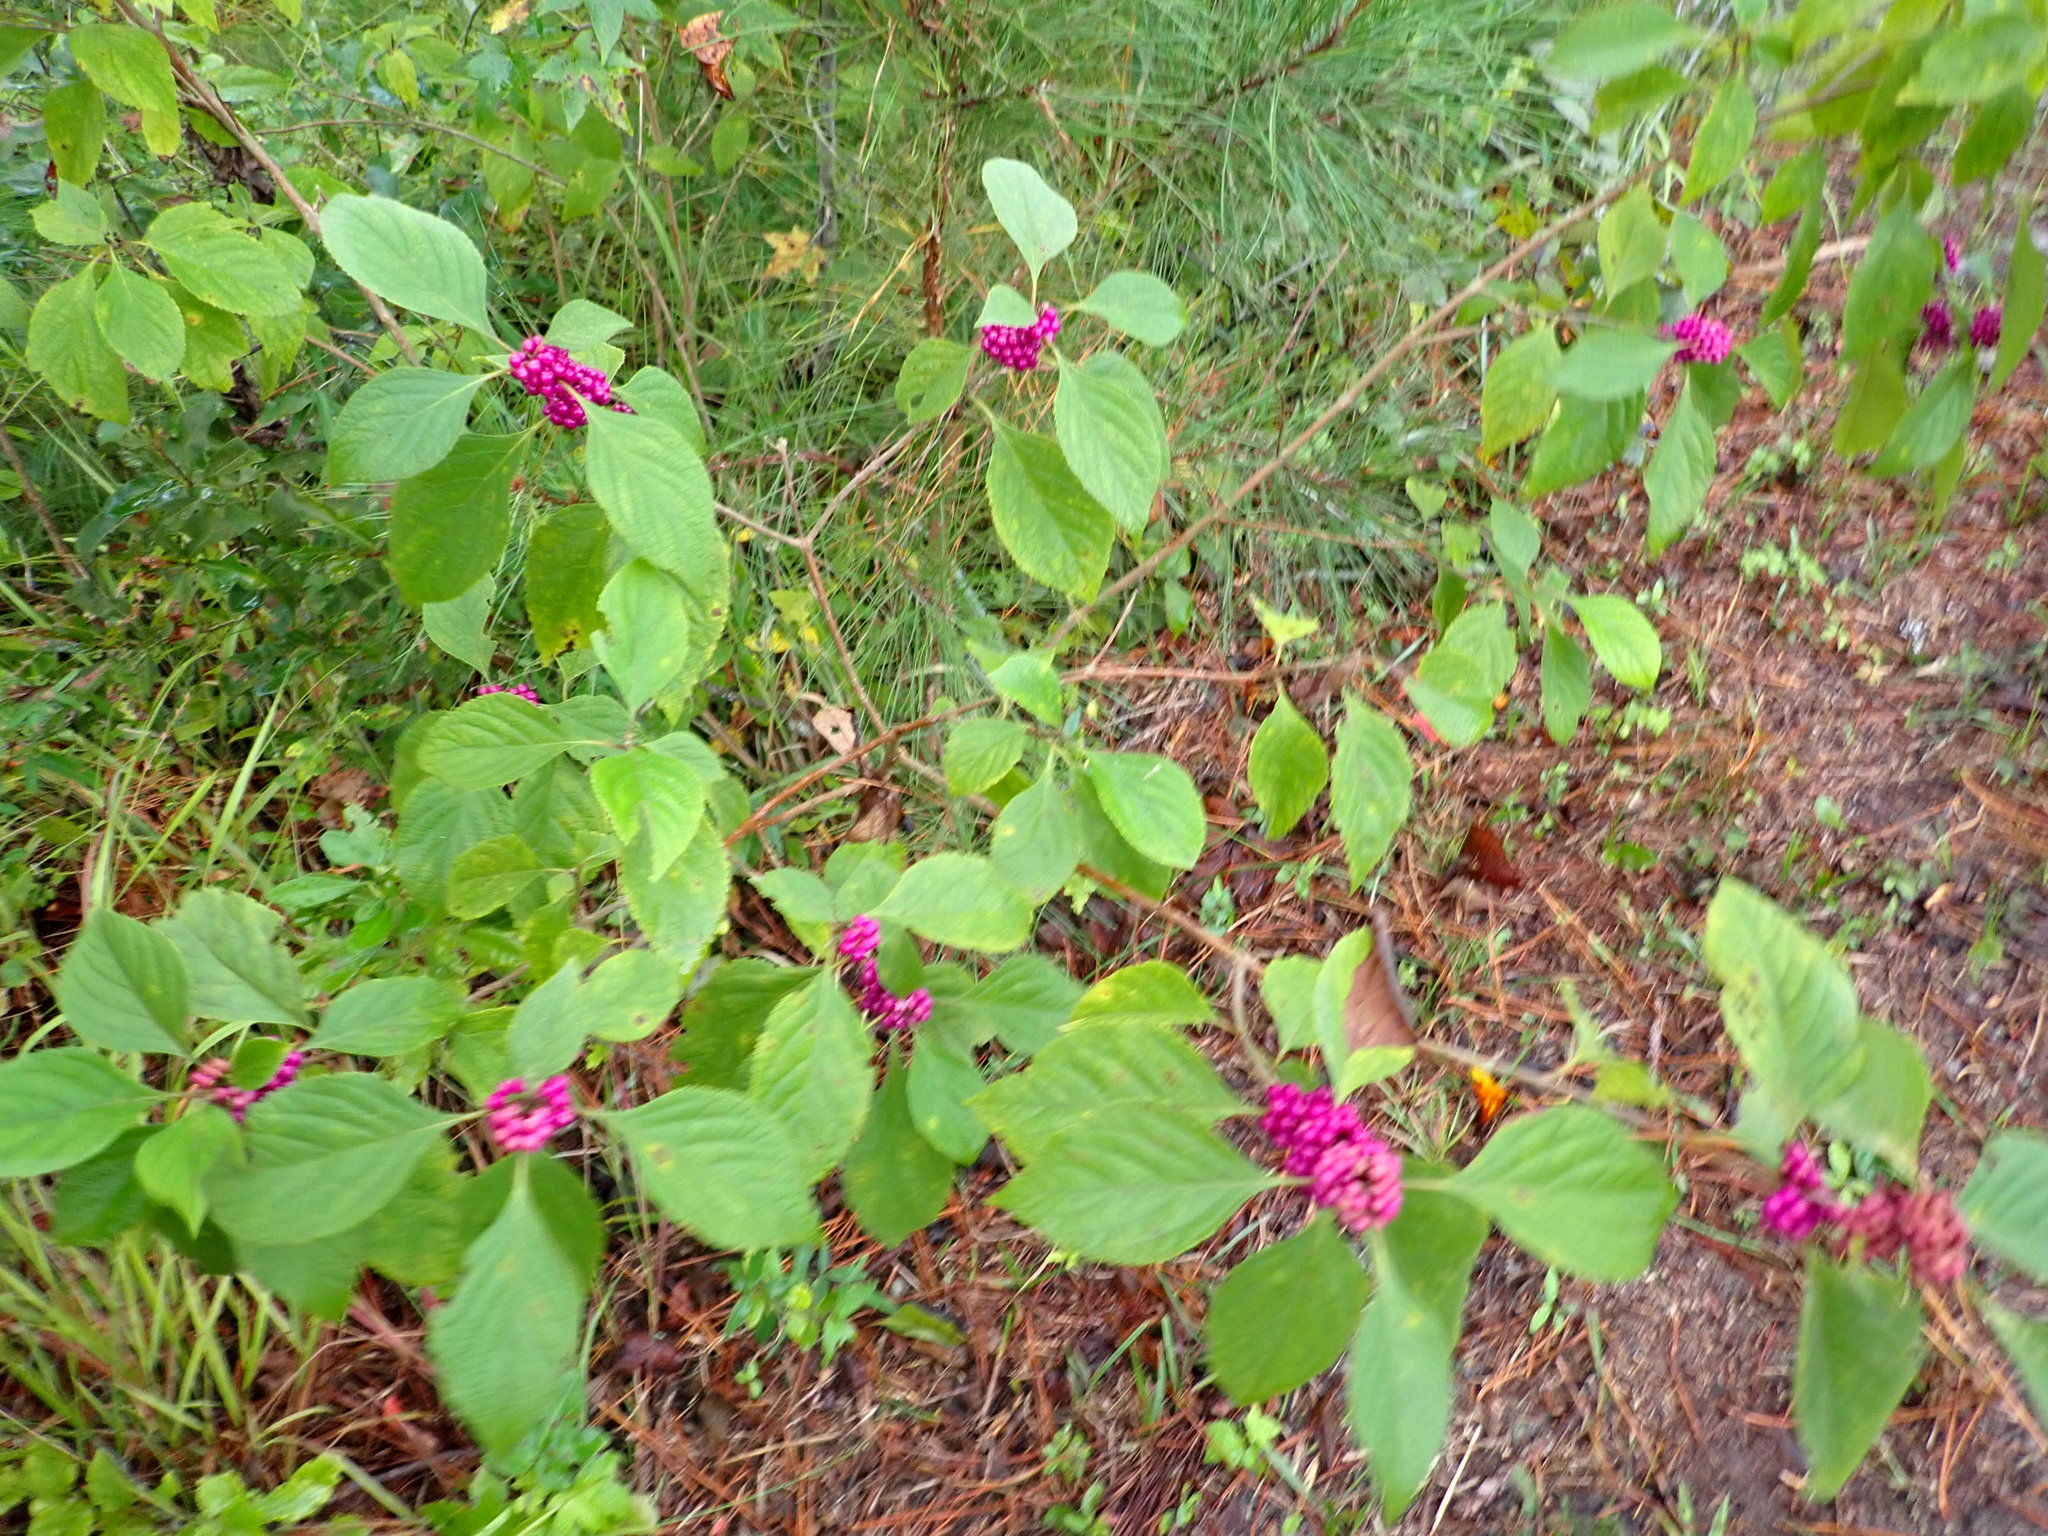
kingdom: Plantae
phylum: Tracheophyta
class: Magnoliopsida
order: Lamiales
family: Lamiaceae
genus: Callicarpa
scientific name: Callicarpa americana
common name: American beautyberry
